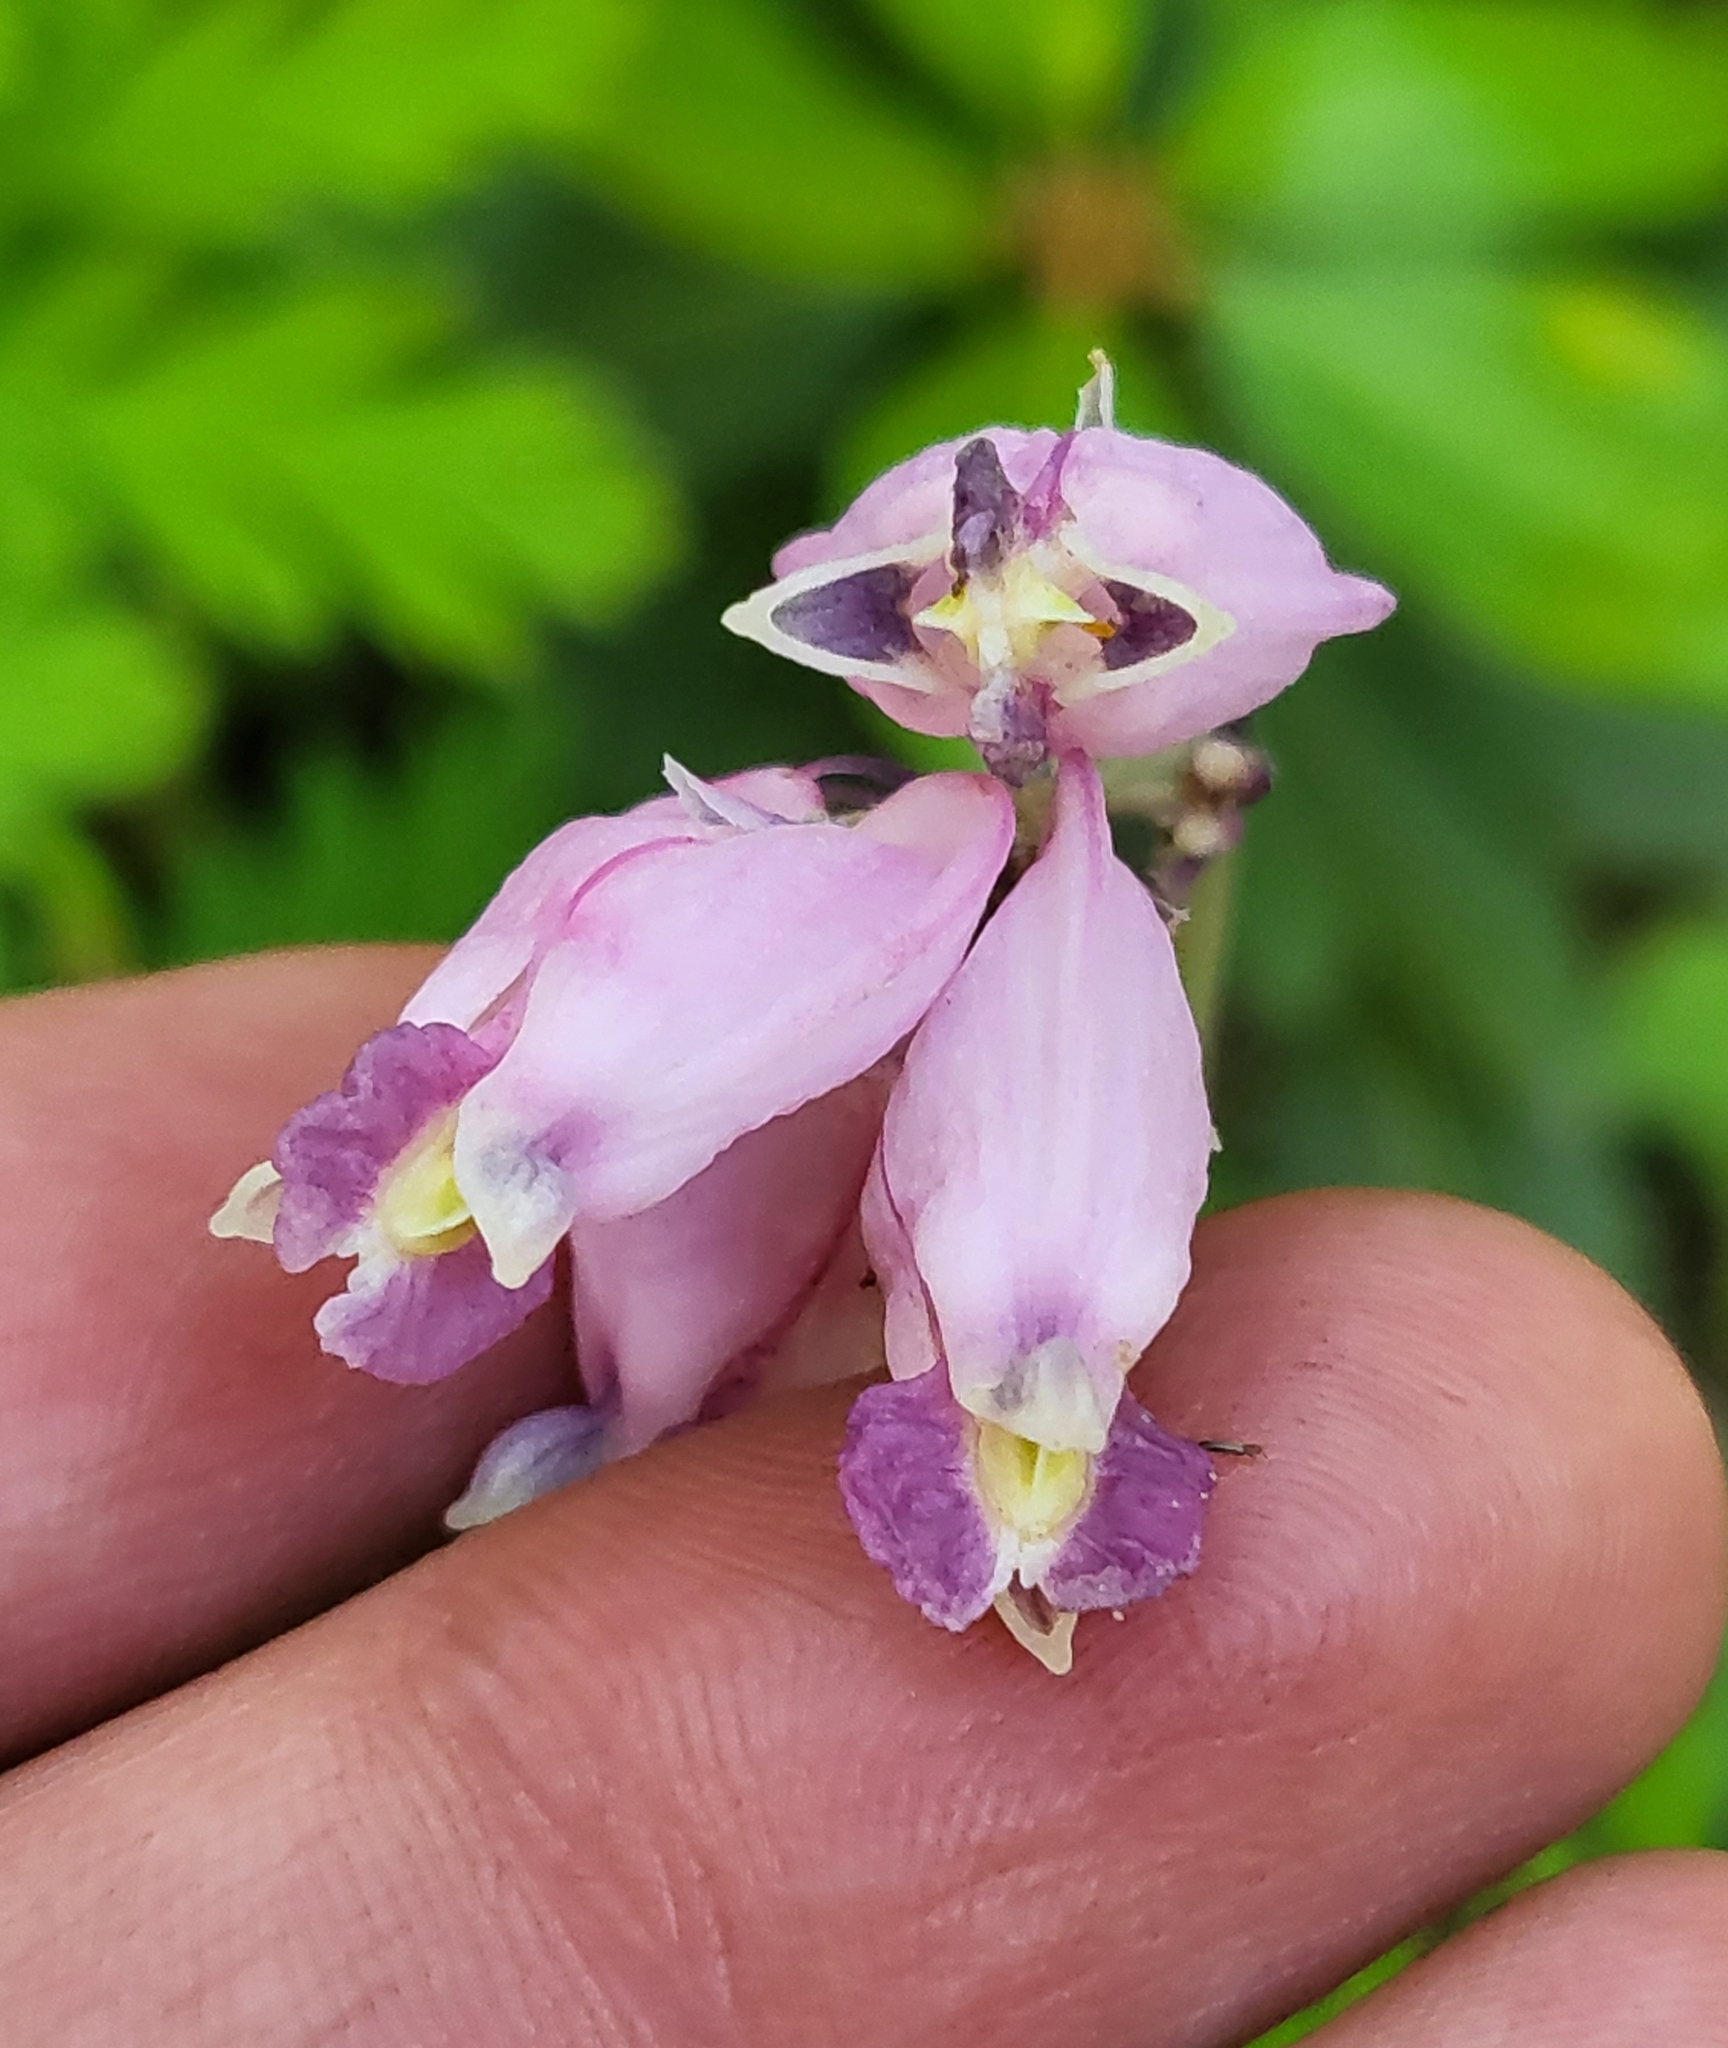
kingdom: Plantae
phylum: Tracheophyta
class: Magnoliopsida
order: Ranunculales
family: Papaveraceae
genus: Dicentra
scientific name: Dicentra formosa
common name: Bleeding-heart
